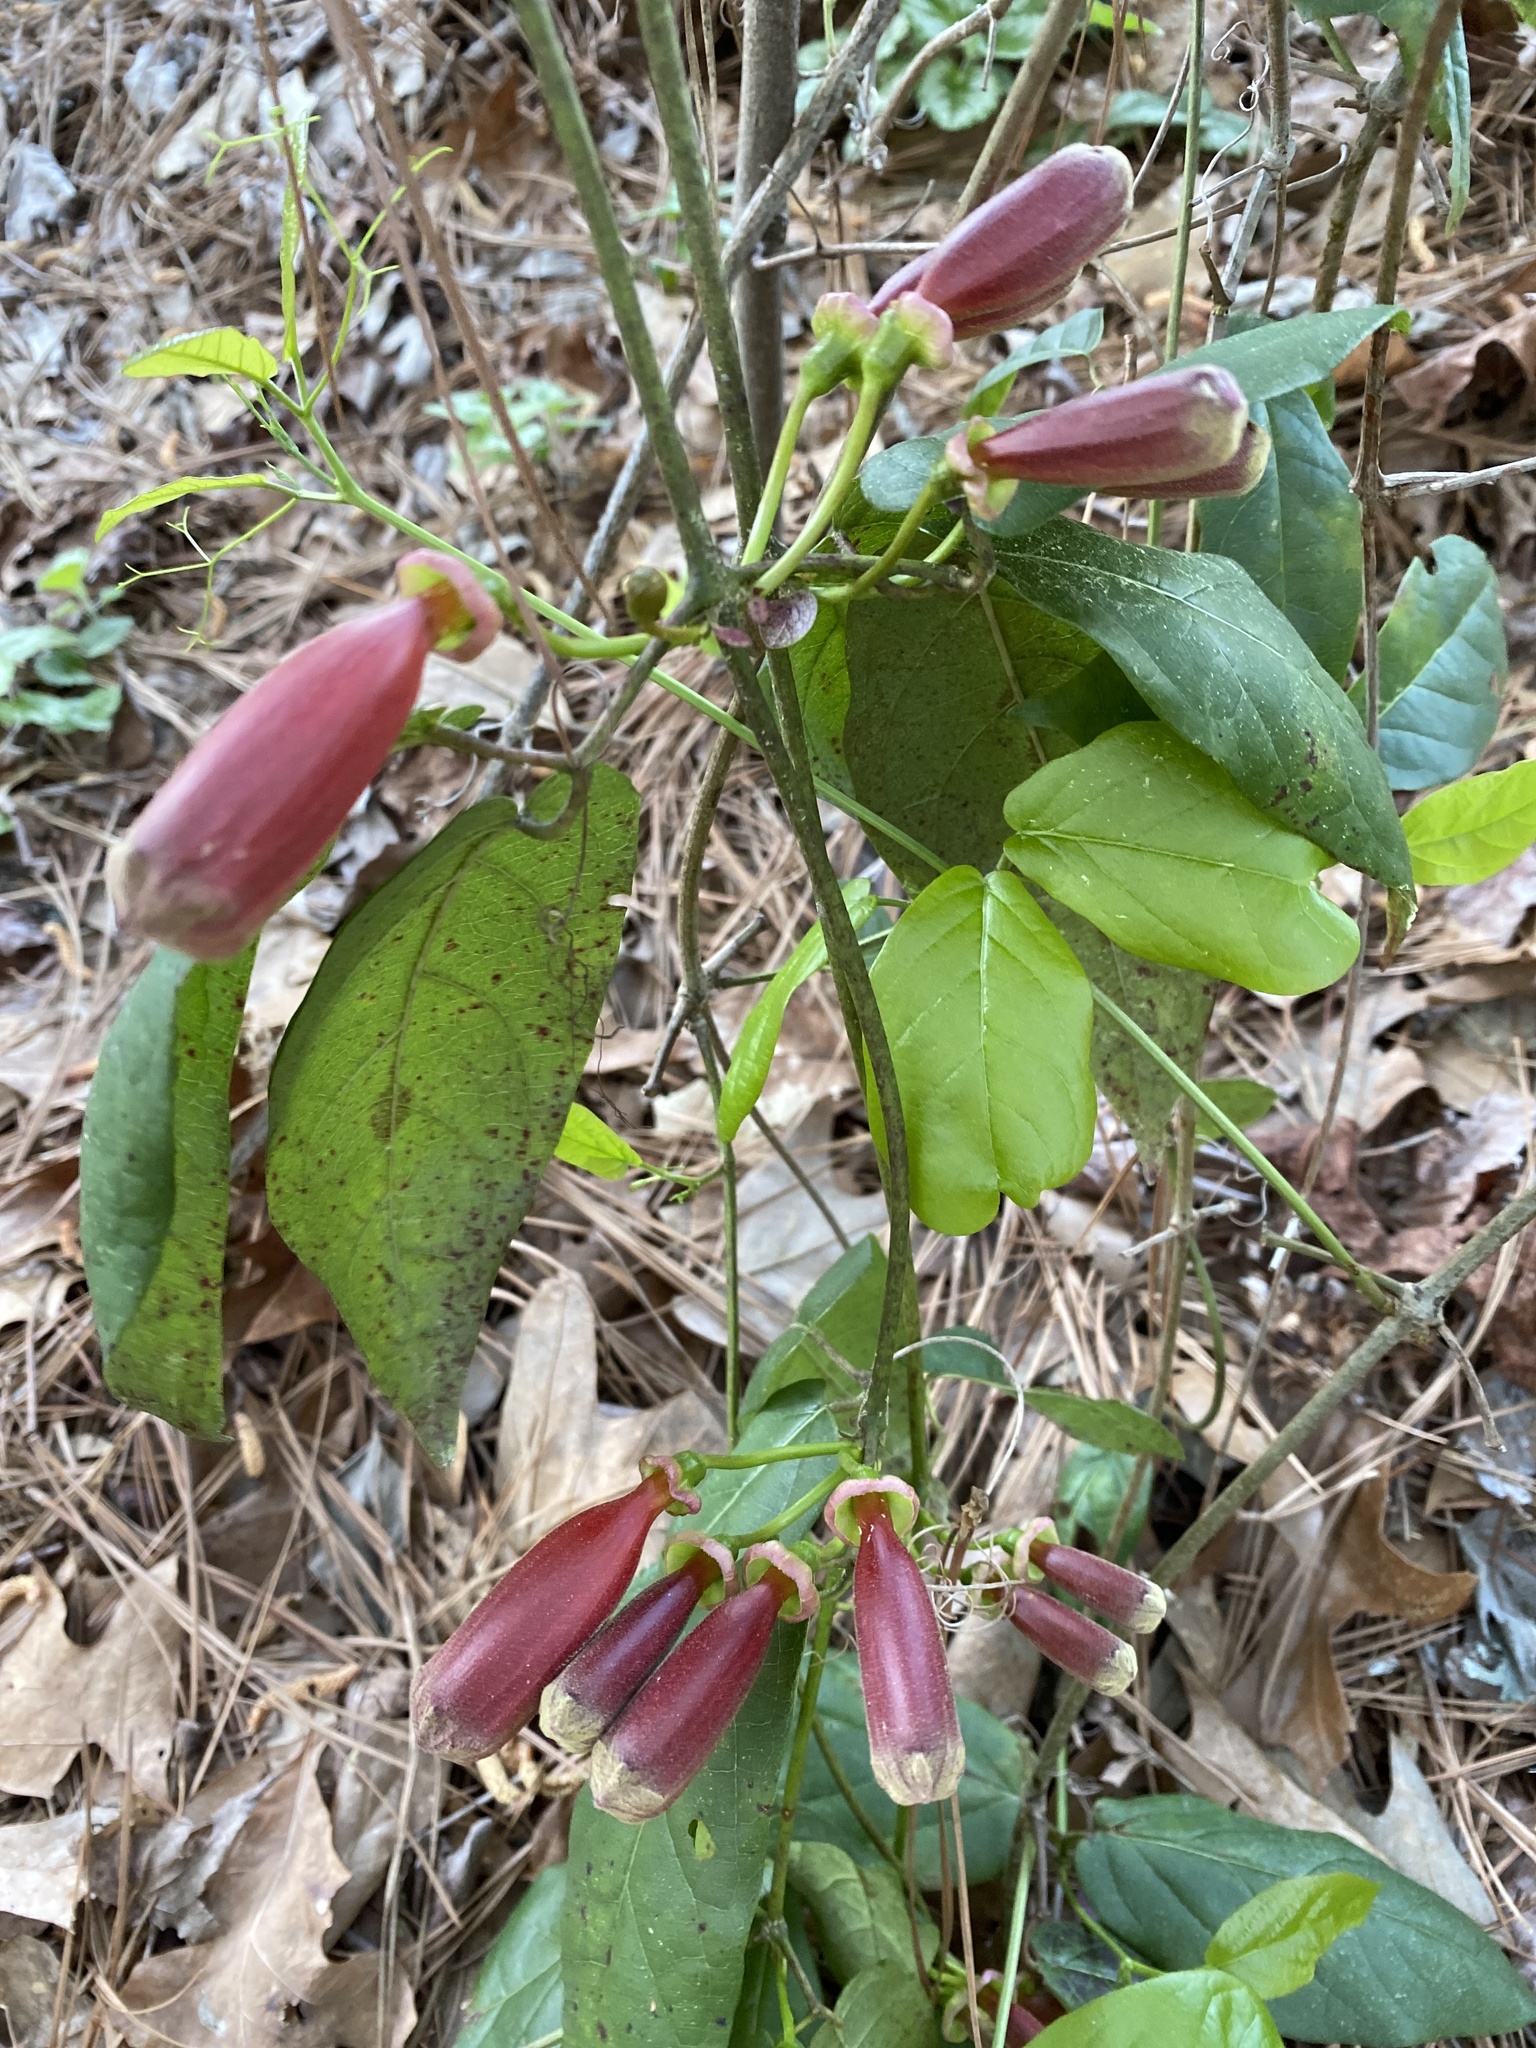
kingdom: Plantae
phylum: Tracheophyta
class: Magnoliopsida
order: Lamiales
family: Bignoniaceae
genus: Bignonia
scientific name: Bignonia capreolata
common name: Crossvine
